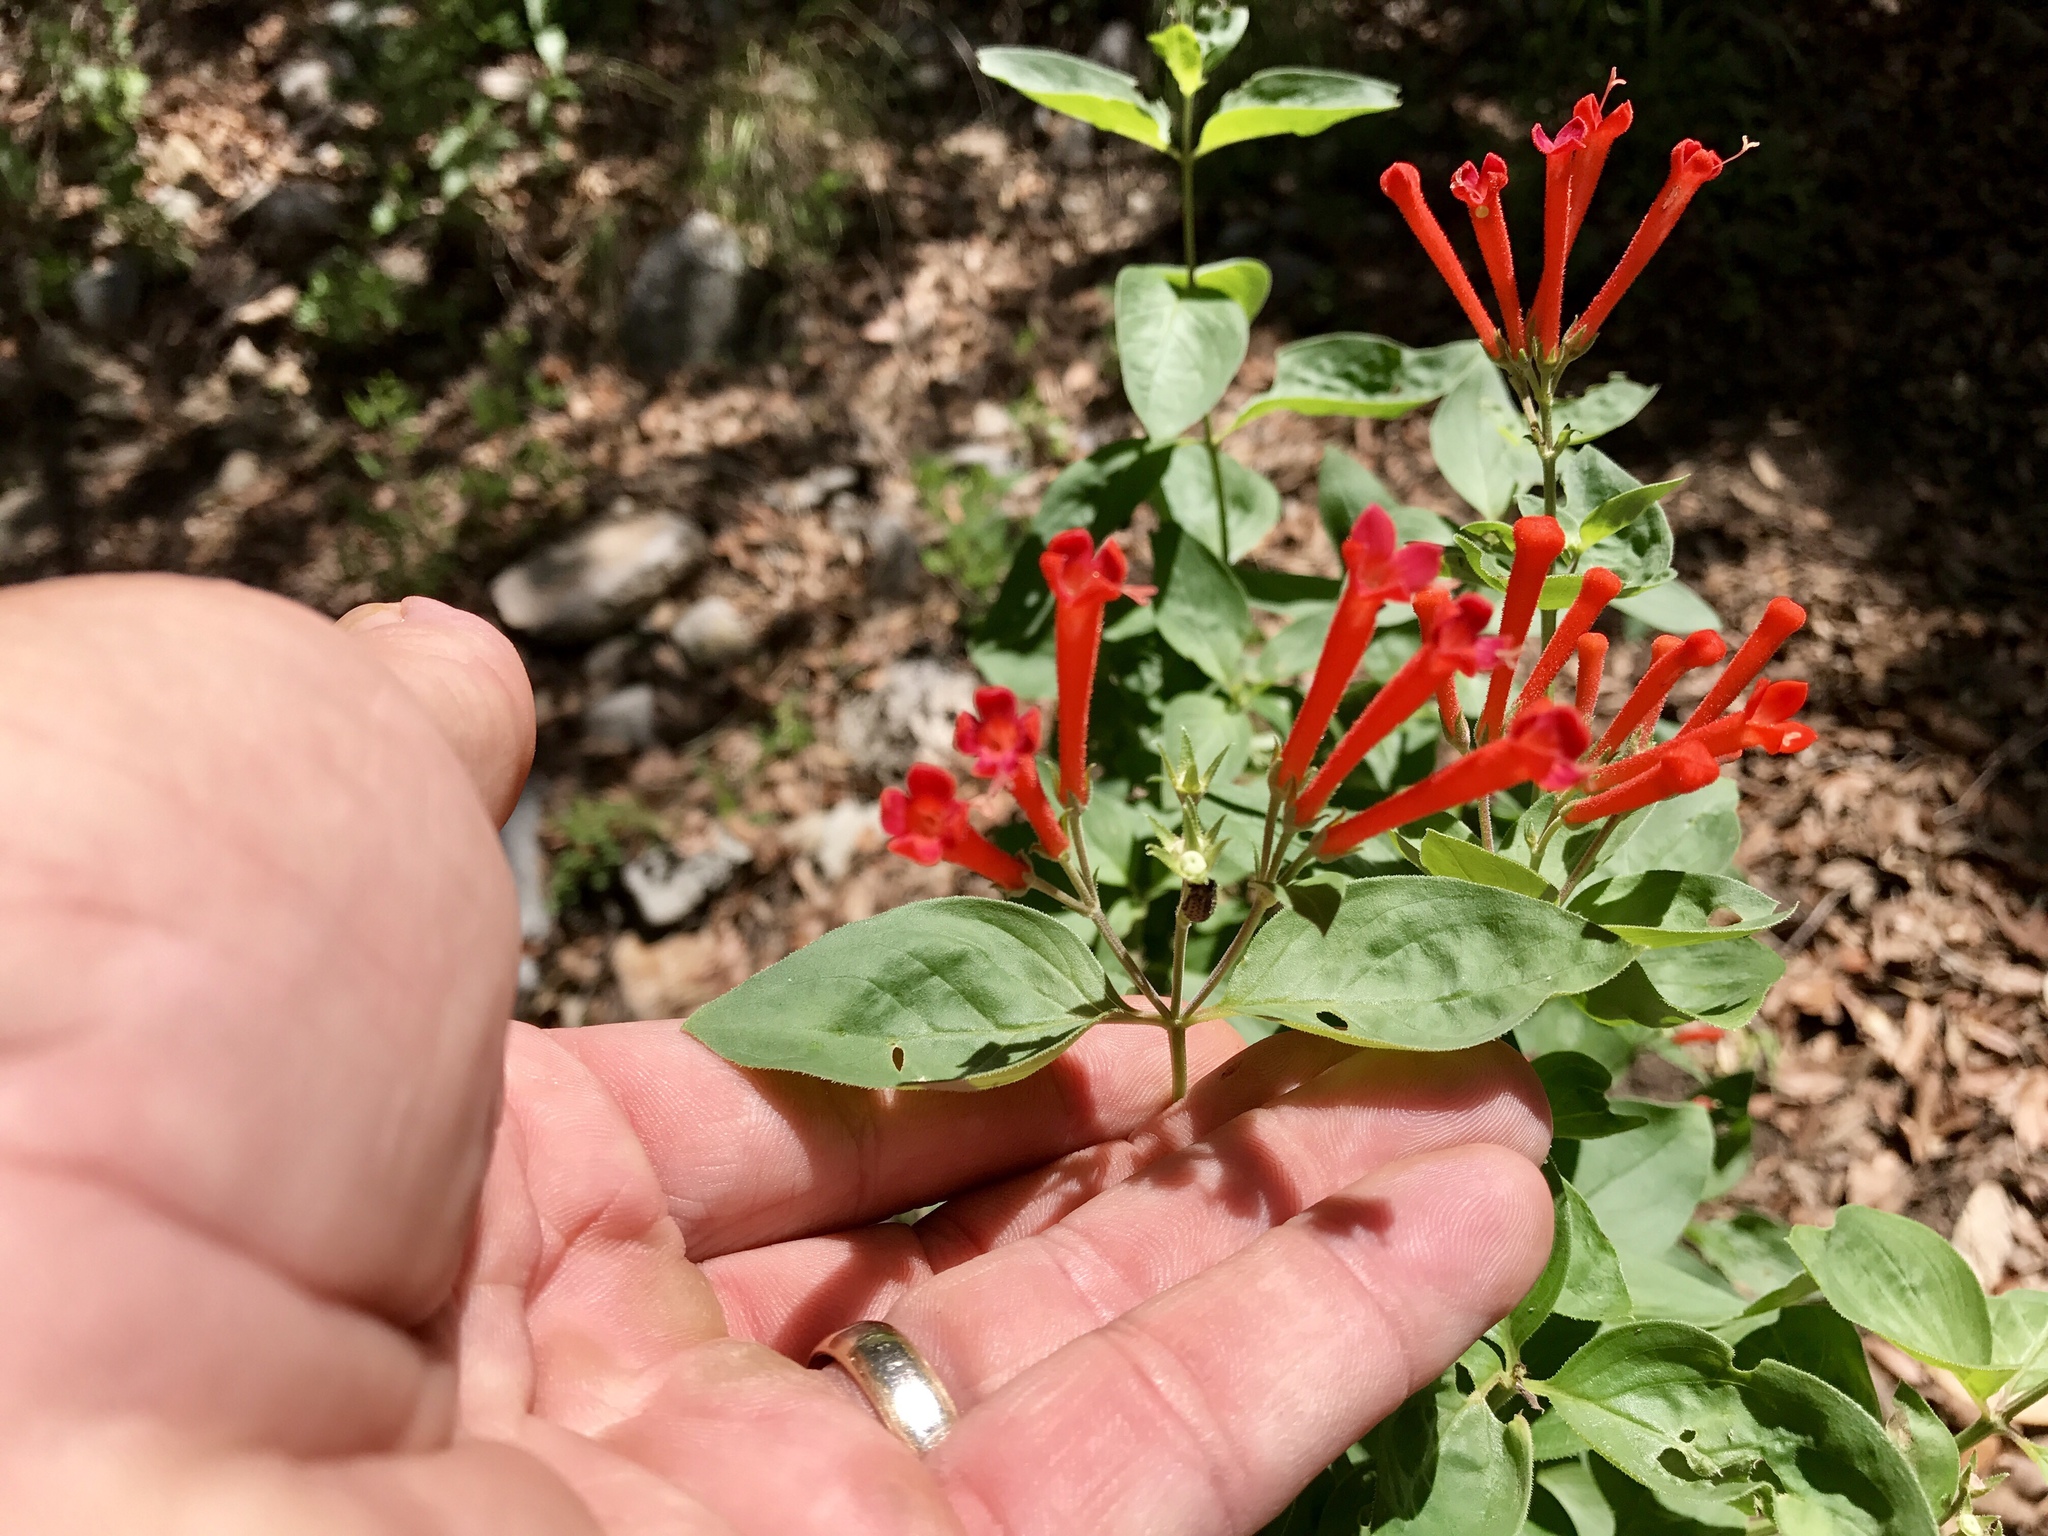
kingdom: Plantae
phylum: Tracheophyta
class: Magnoliopsida
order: Gentianales
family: Rubiaceae
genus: Bouvardia
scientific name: Bouvardia ternifolia
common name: Scarlet bouvardia
